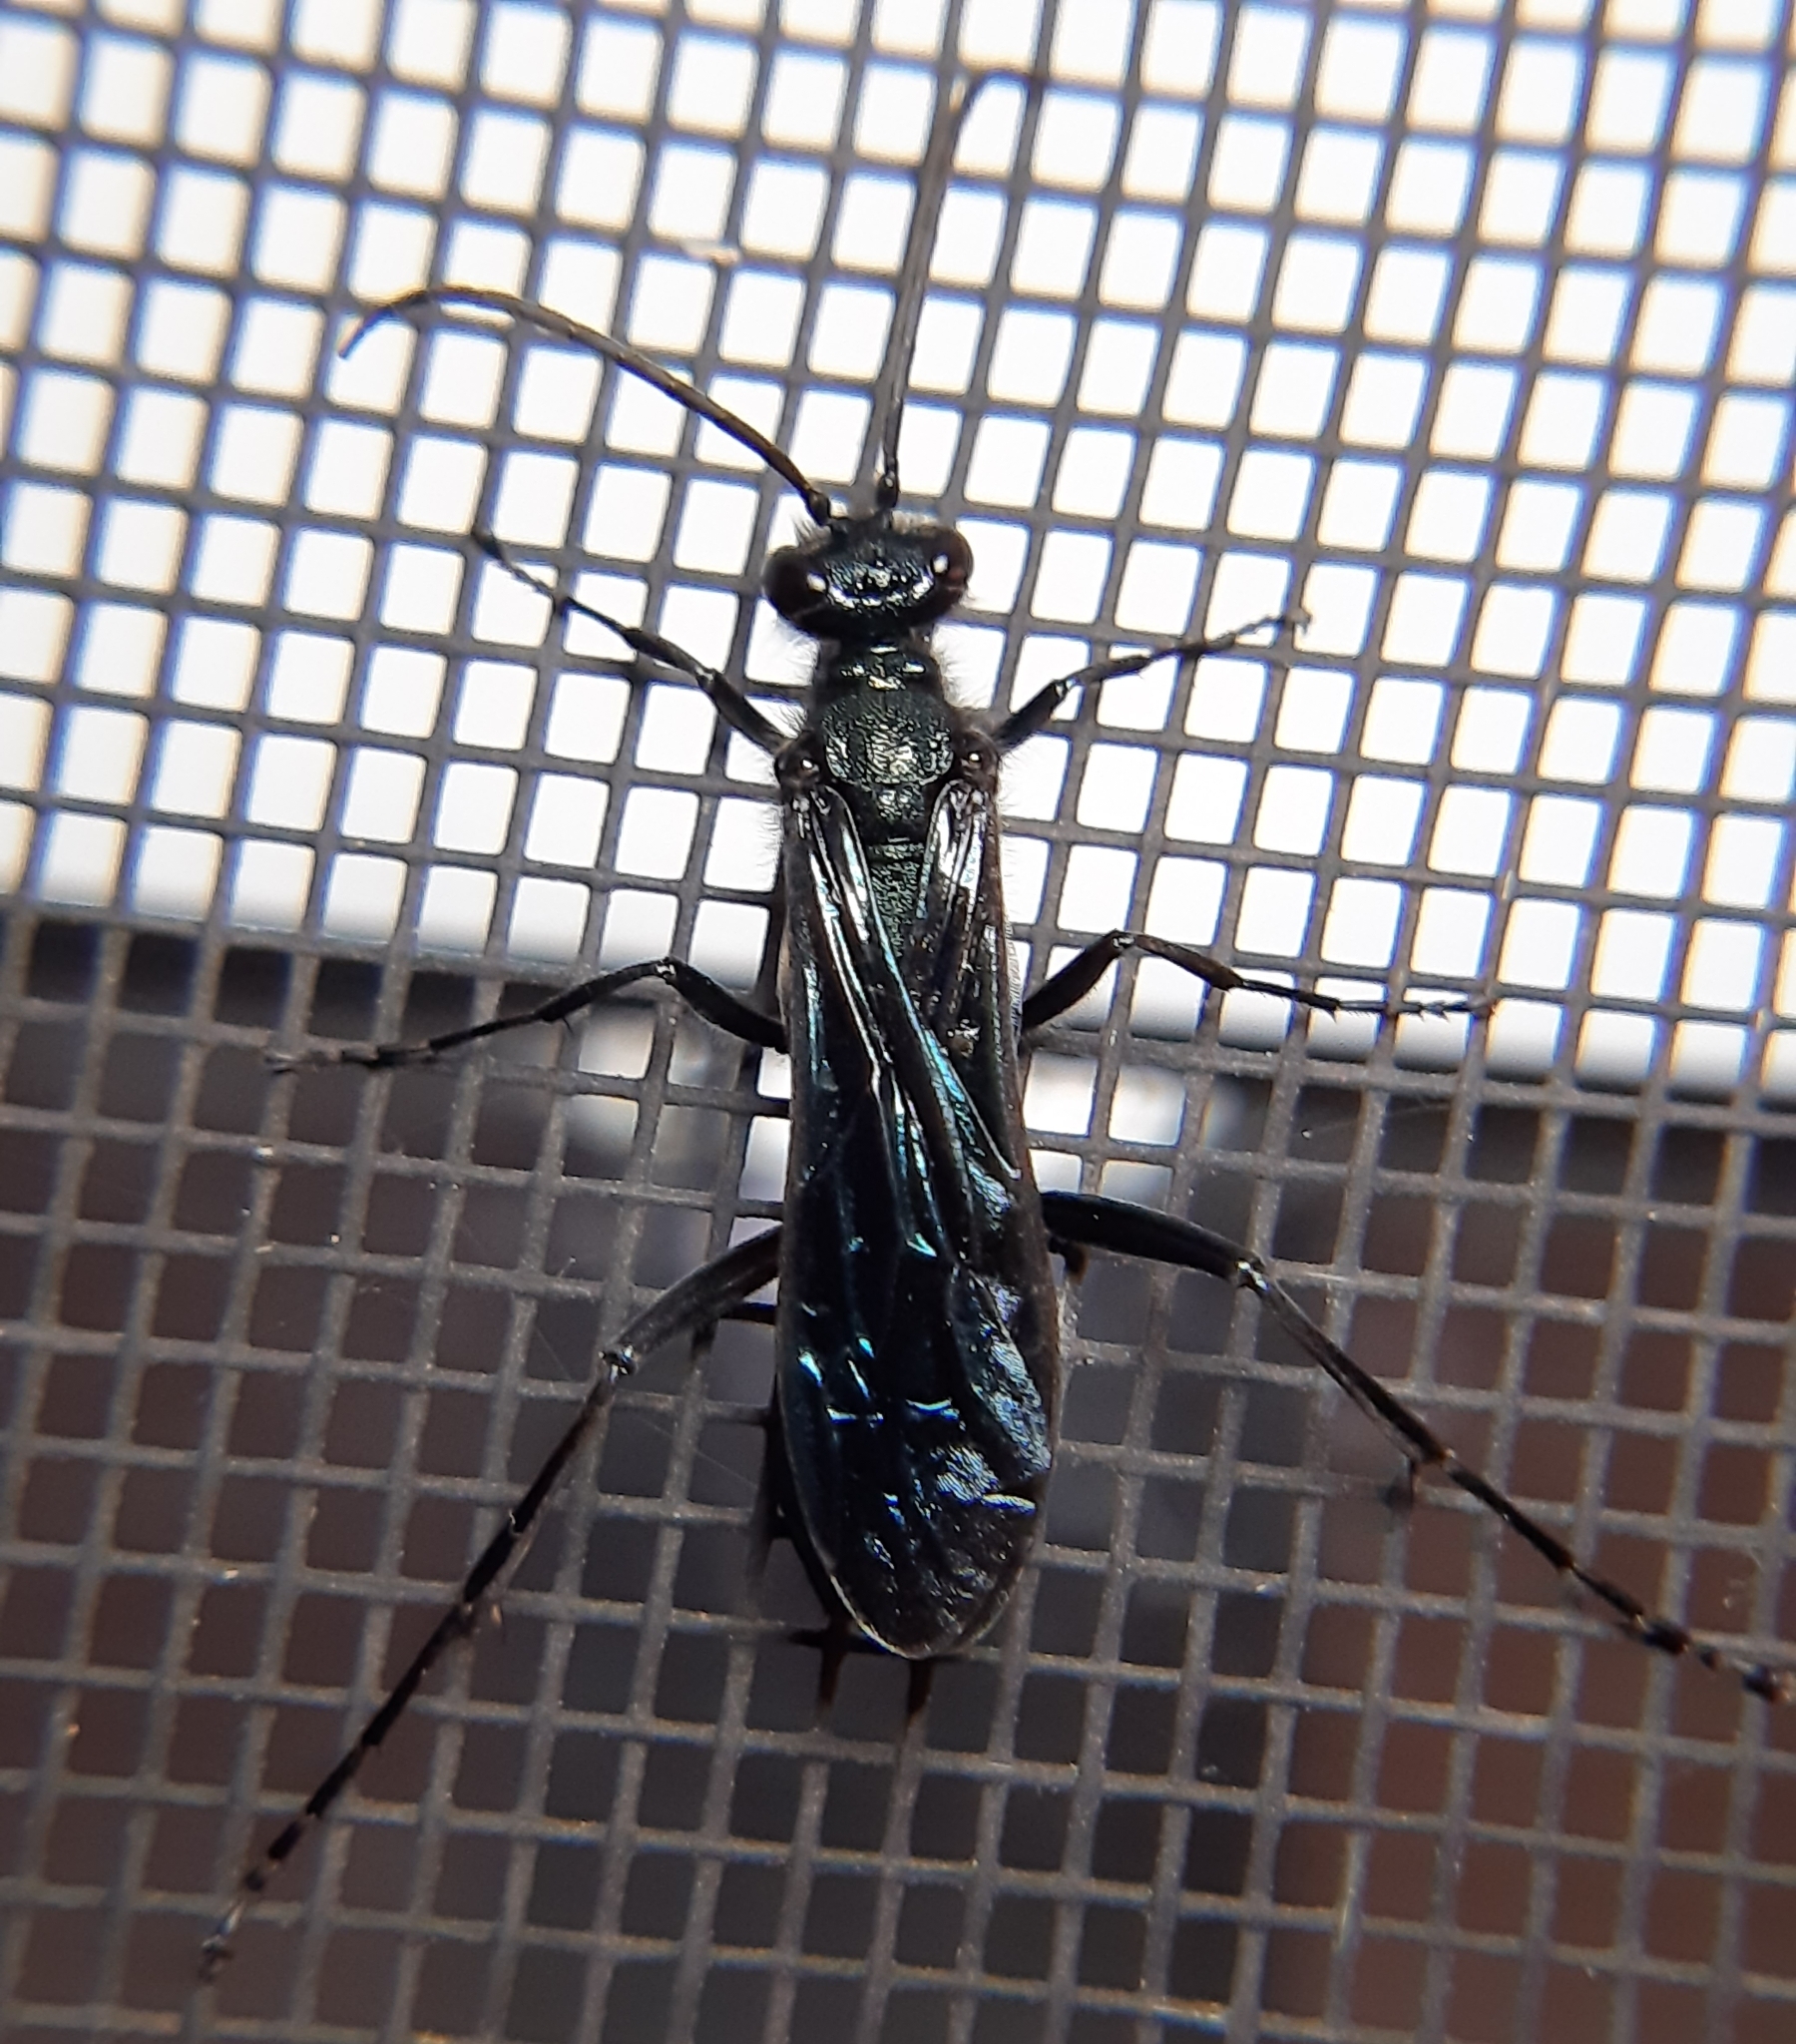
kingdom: Animalia
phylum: Arthropoda
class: Insecta
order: Hymenoptera
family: Sphecidae
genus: Chalybion
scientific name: Chalybion californicum
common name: Mud dauber
